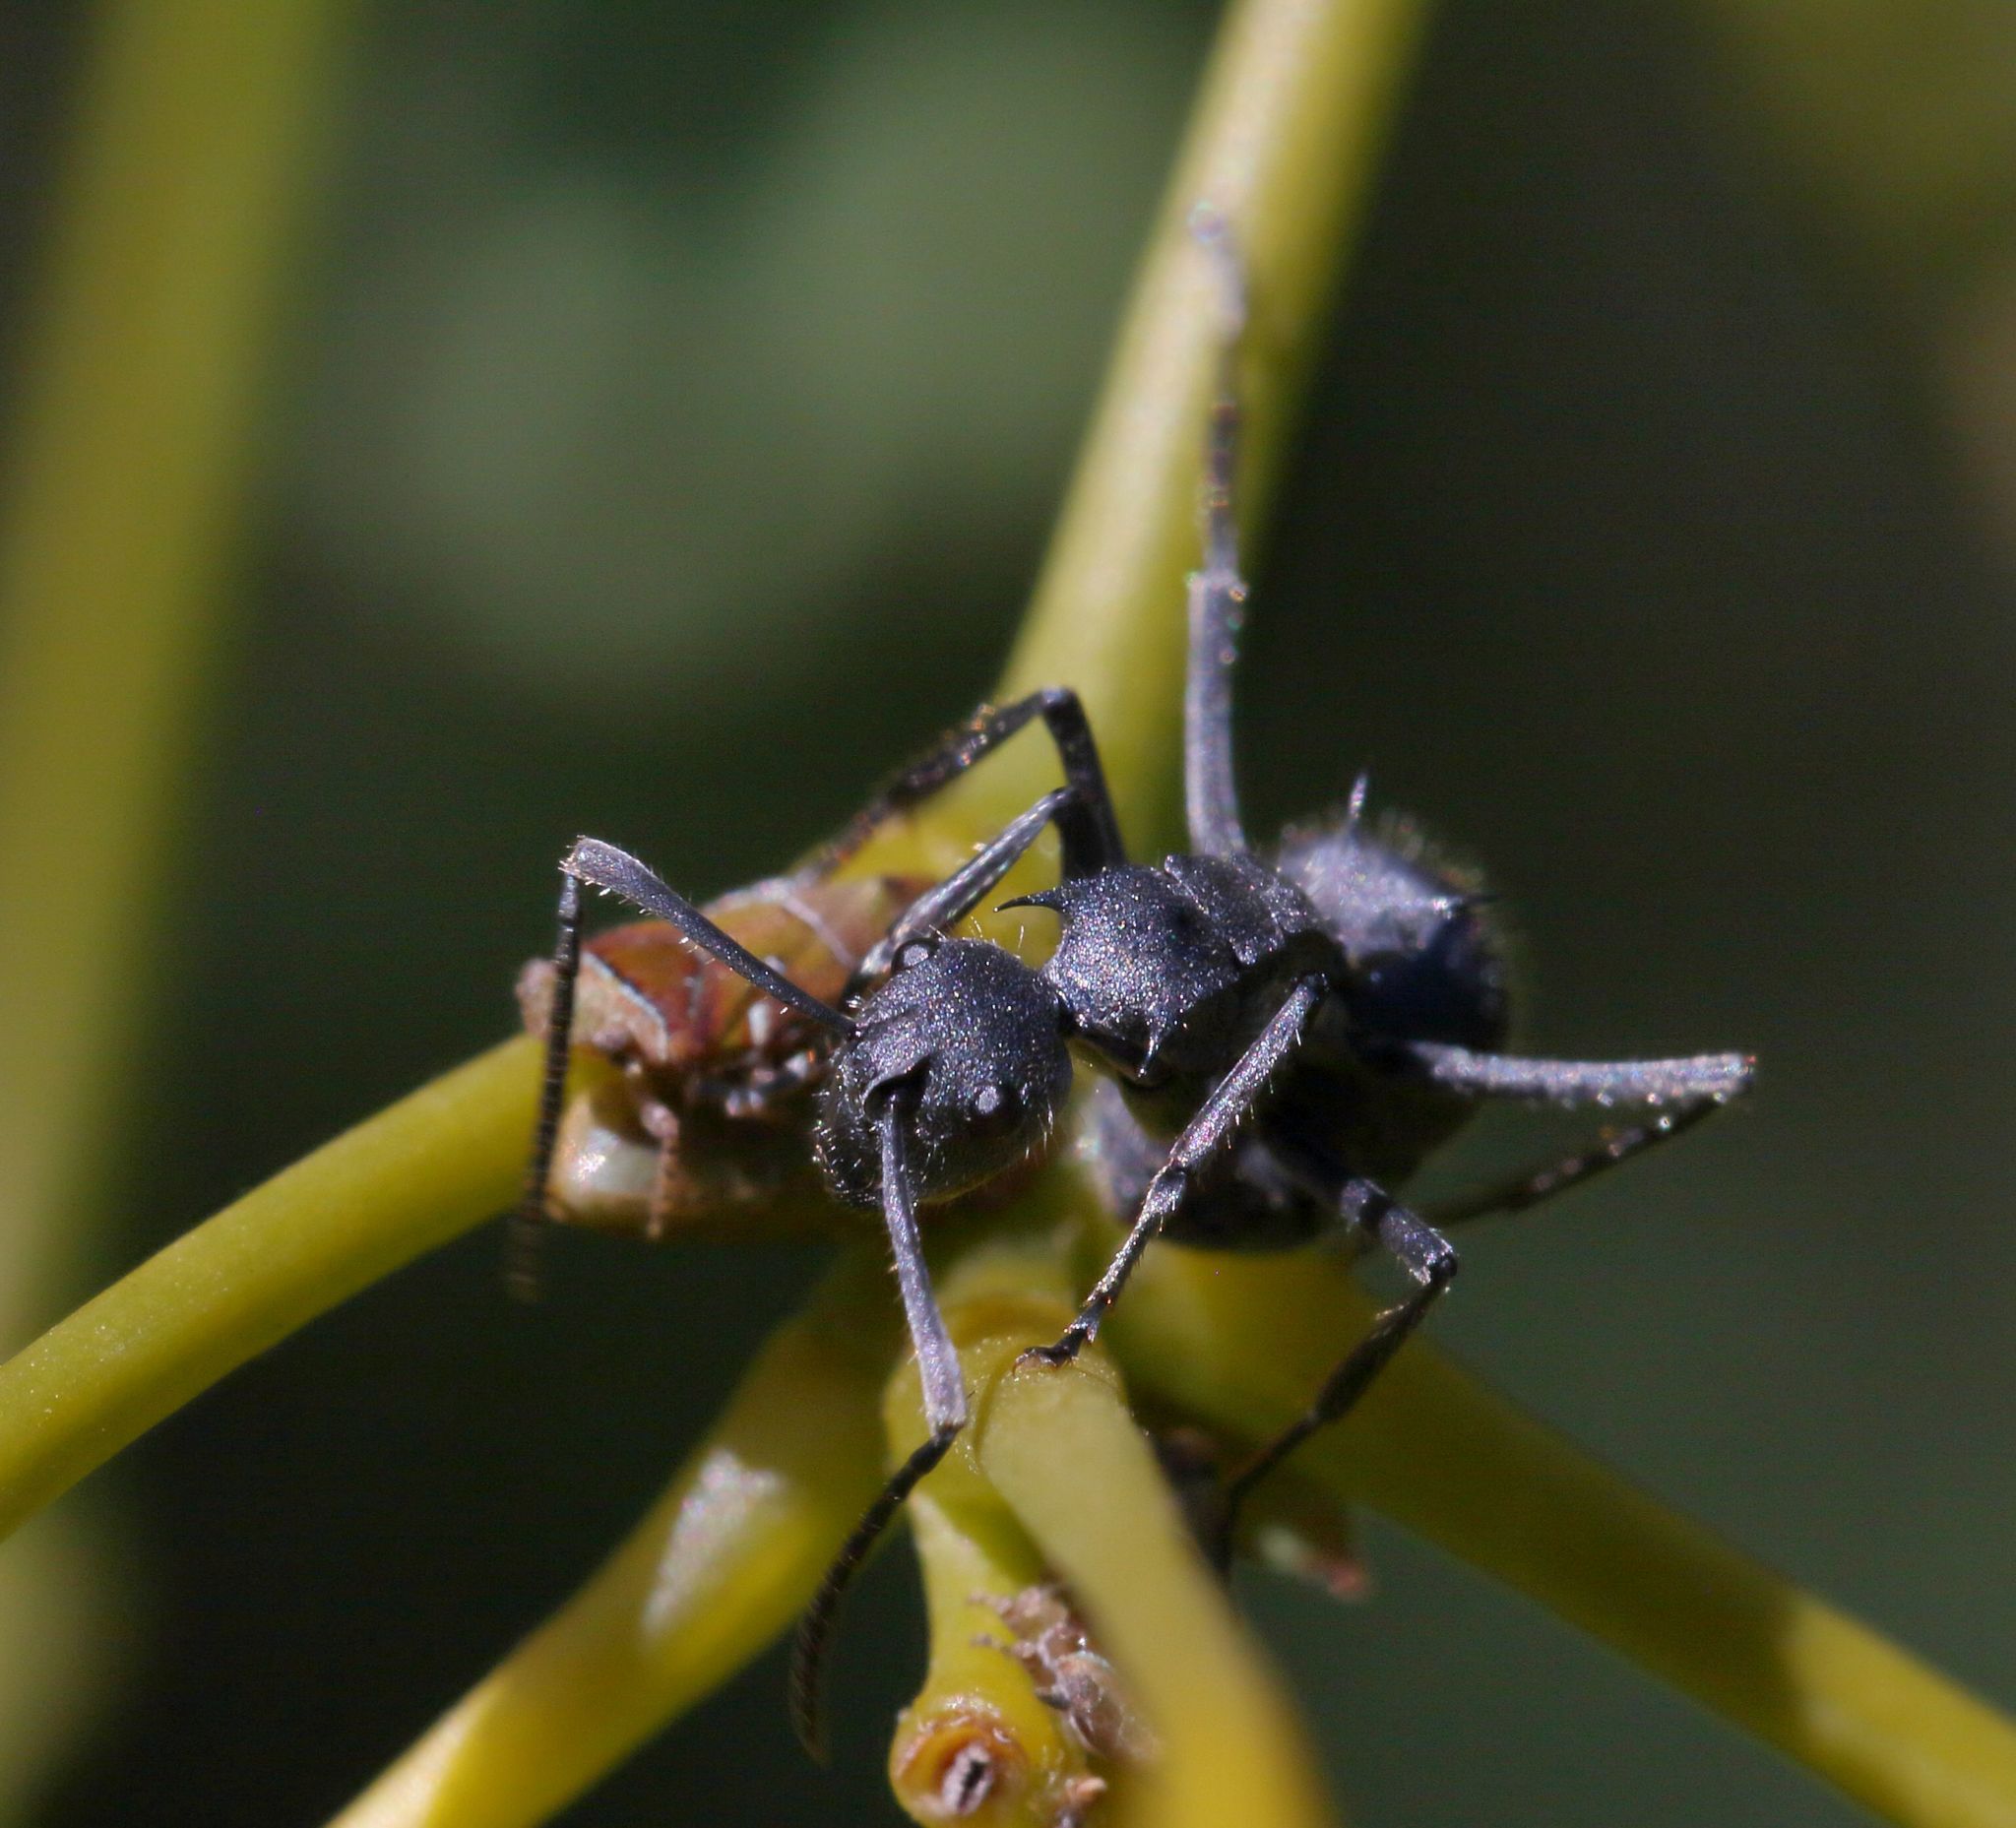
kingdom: Animalia
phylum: Arthropoda
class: Insecta
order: Hymenoptera
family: Formicidae
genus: Polyrhachis
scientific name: Polyrhachis schistacea
